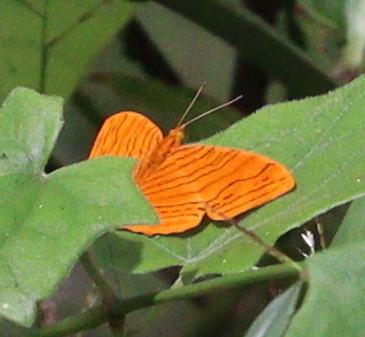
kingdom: Animalia
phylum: Arthropoda
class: Insecta
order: Lepidoptera
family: Nymphalidae
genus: Chersonesia
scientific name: Chersonesia intermedia
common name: Intermediate maplet
